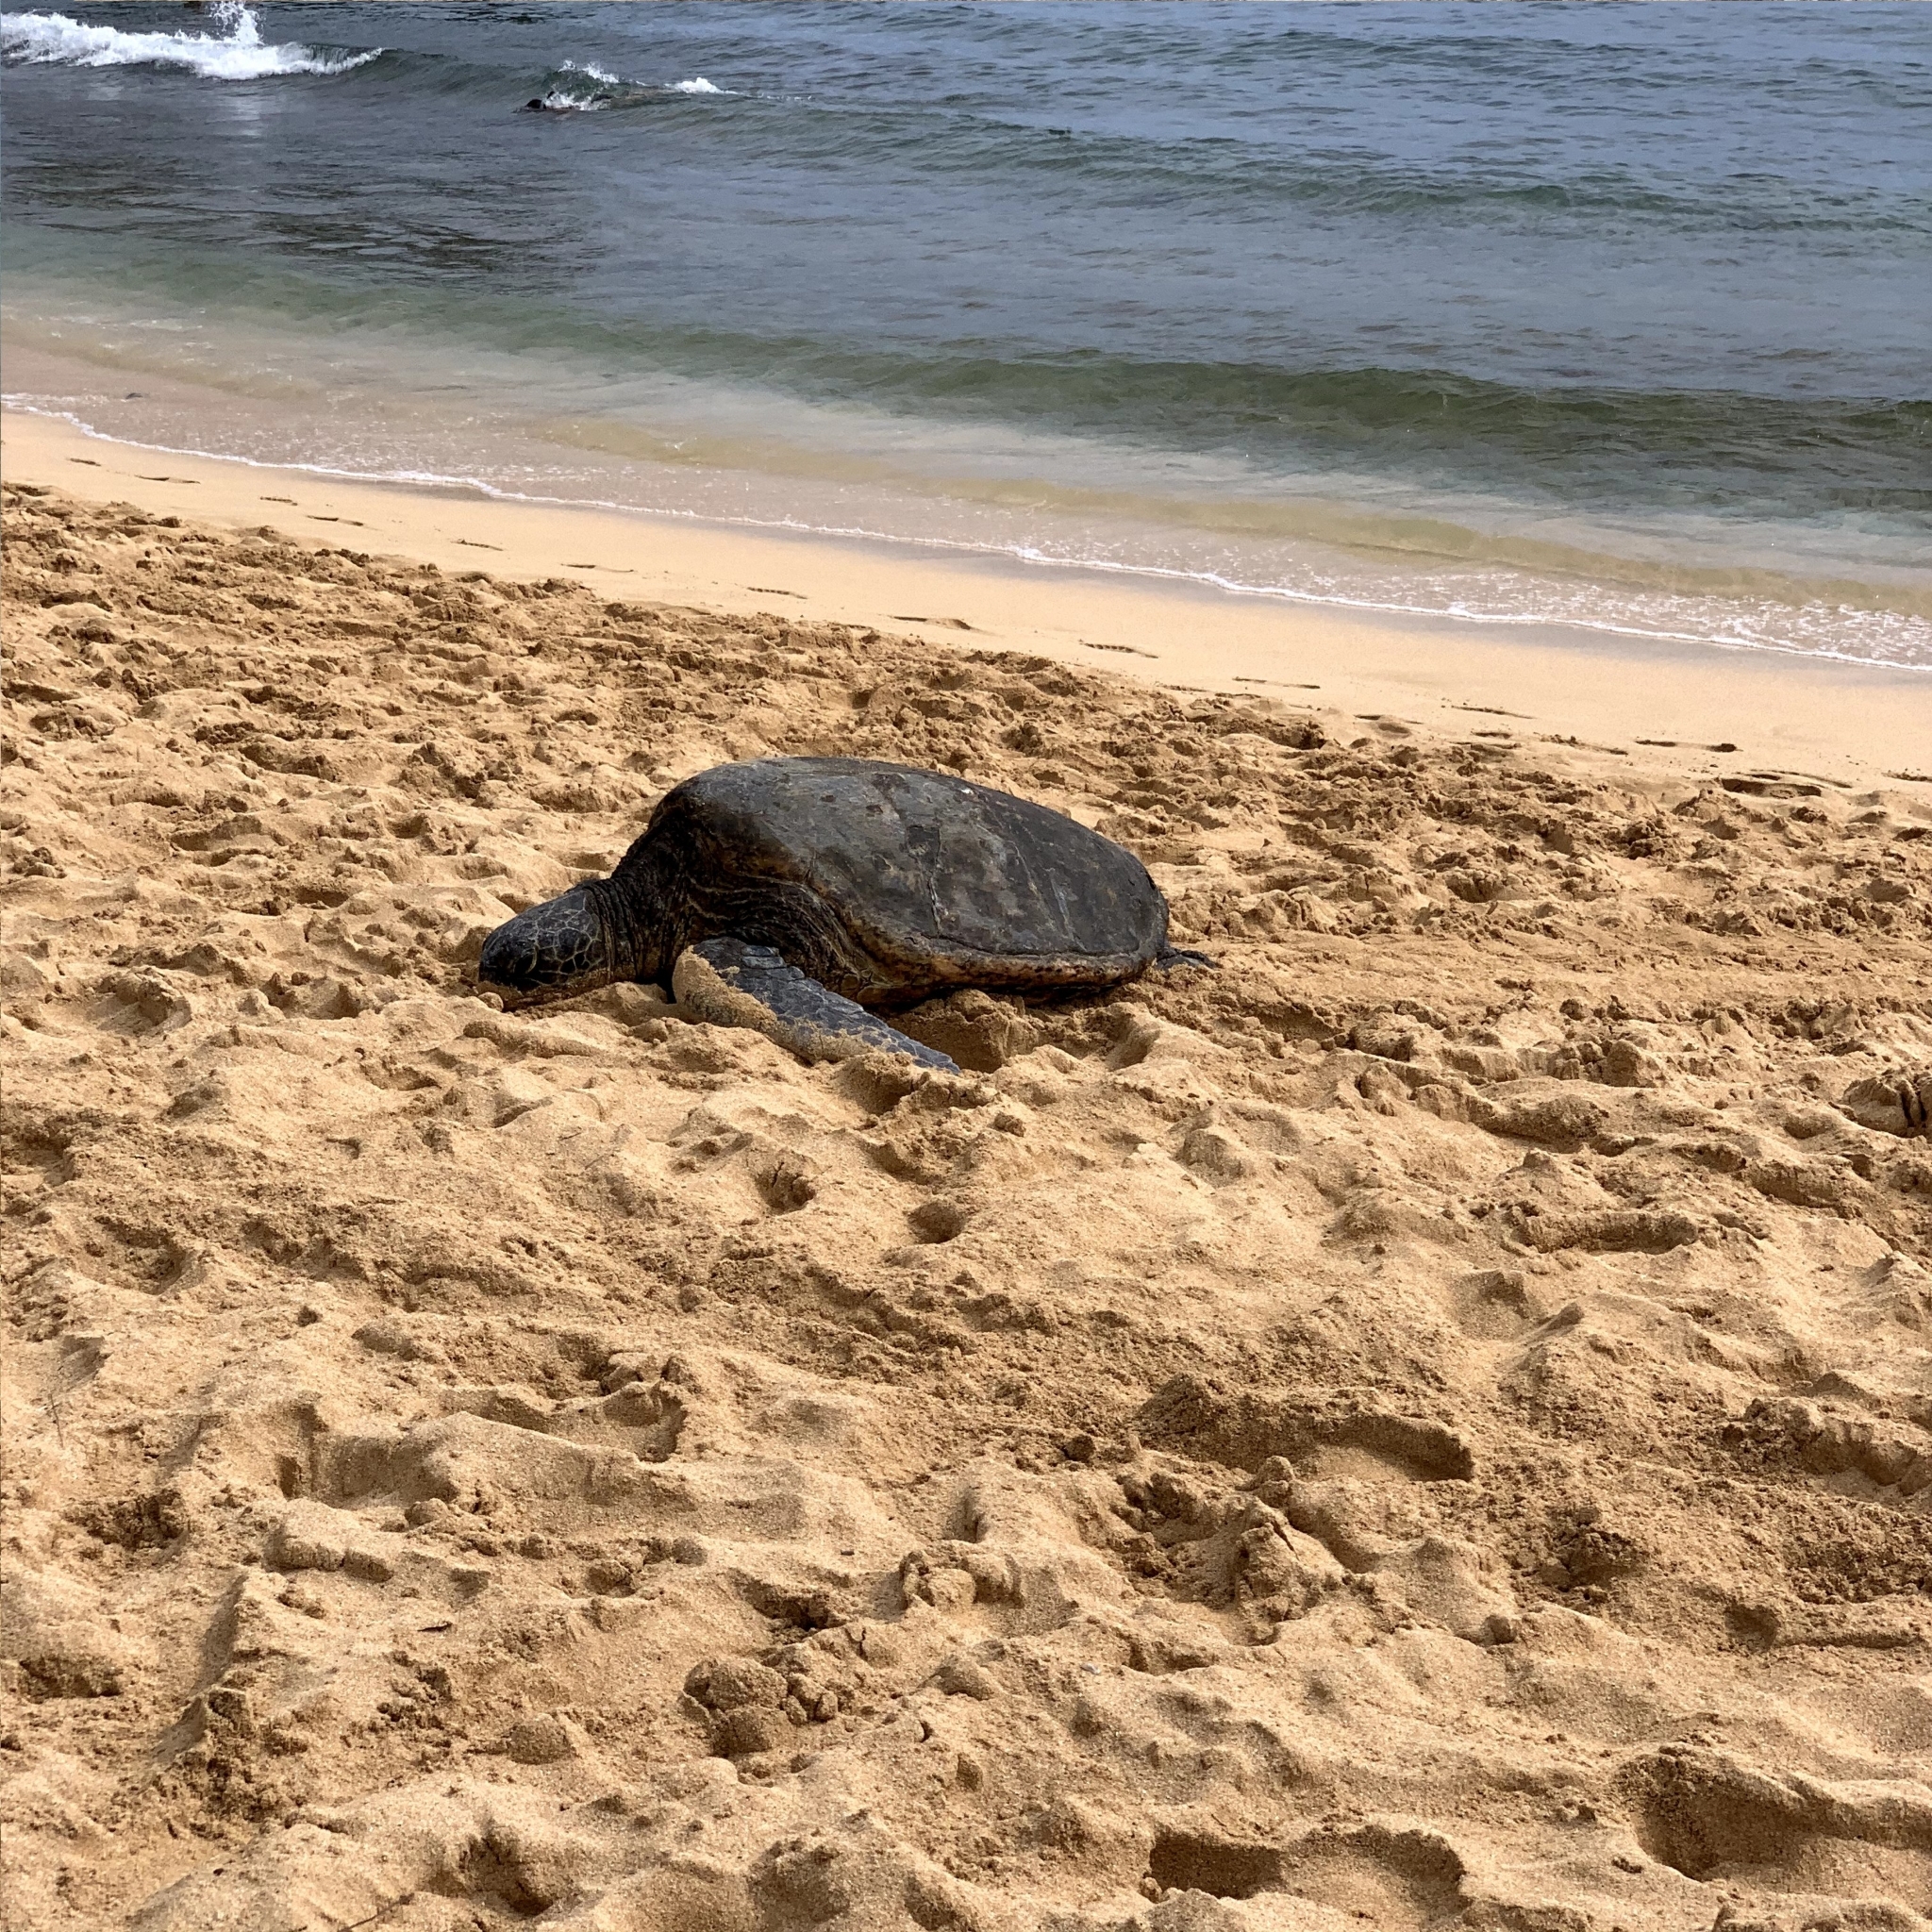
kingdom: Animalia
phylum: Chordata
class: Testudines
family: Cheloniidae
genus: Chelonia
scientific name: Chelonia mydas
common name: Green turtle
